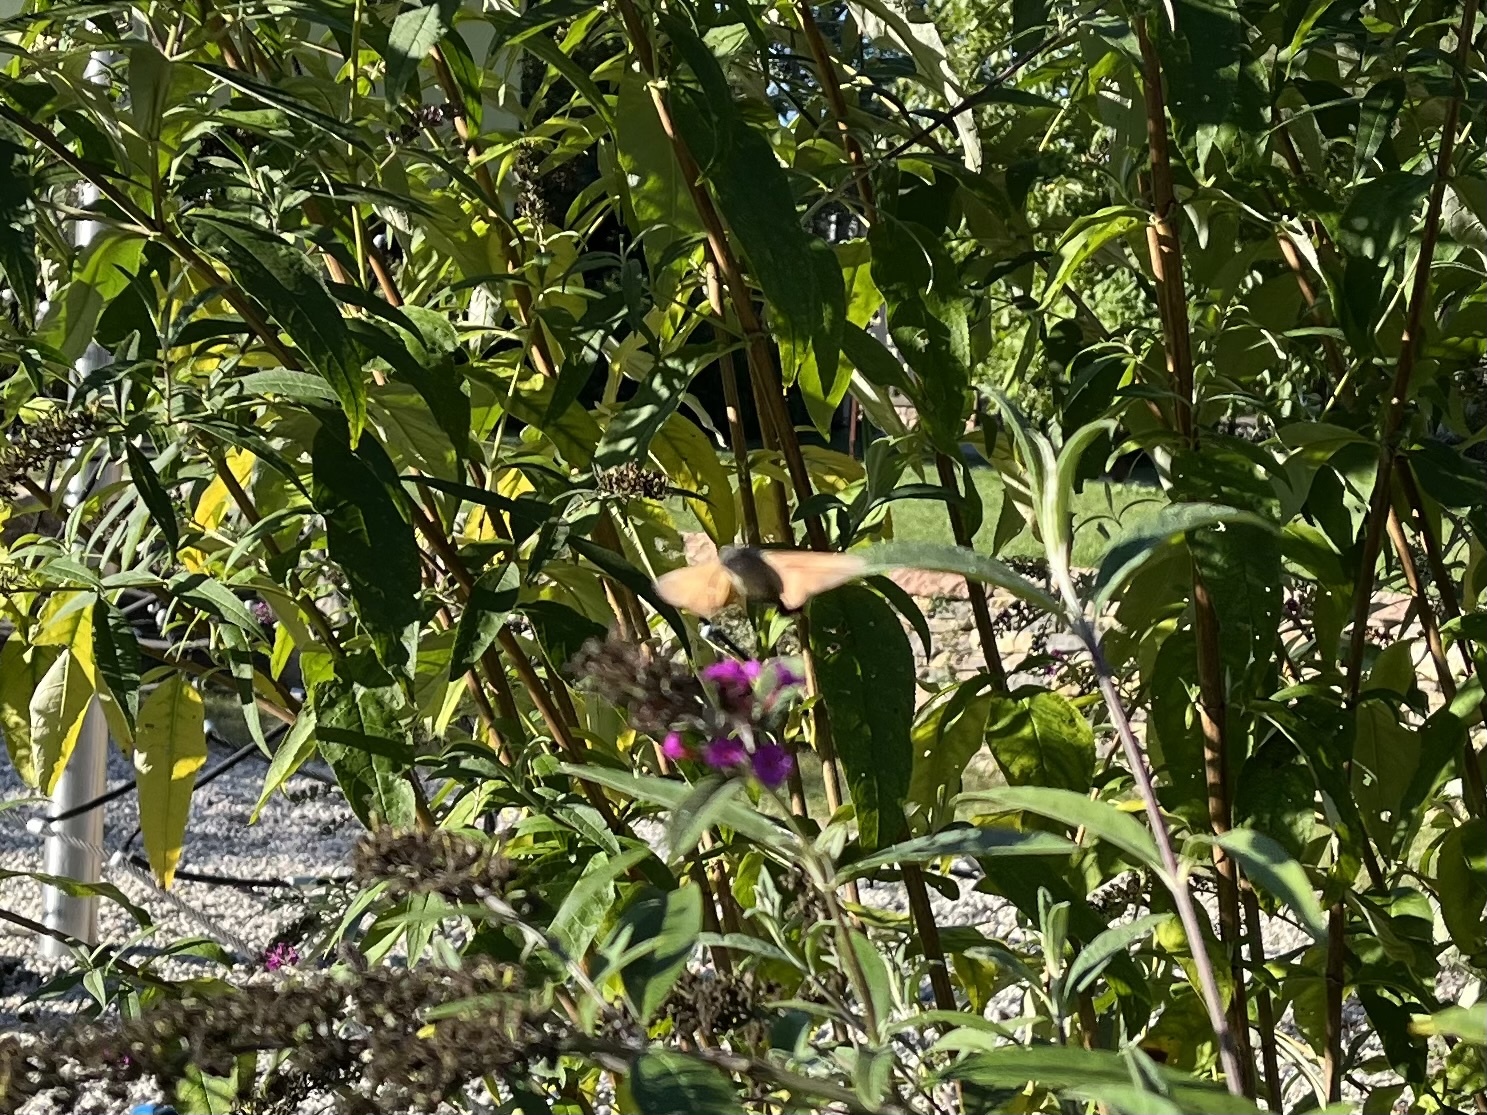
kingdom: Animalia
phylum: Arthropoda
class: Insecta
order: Lepidoptera
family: Sphingidae
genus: Macroglossum
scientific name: Macroglossum stellatarum
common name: Humming-bird hawk-moth
